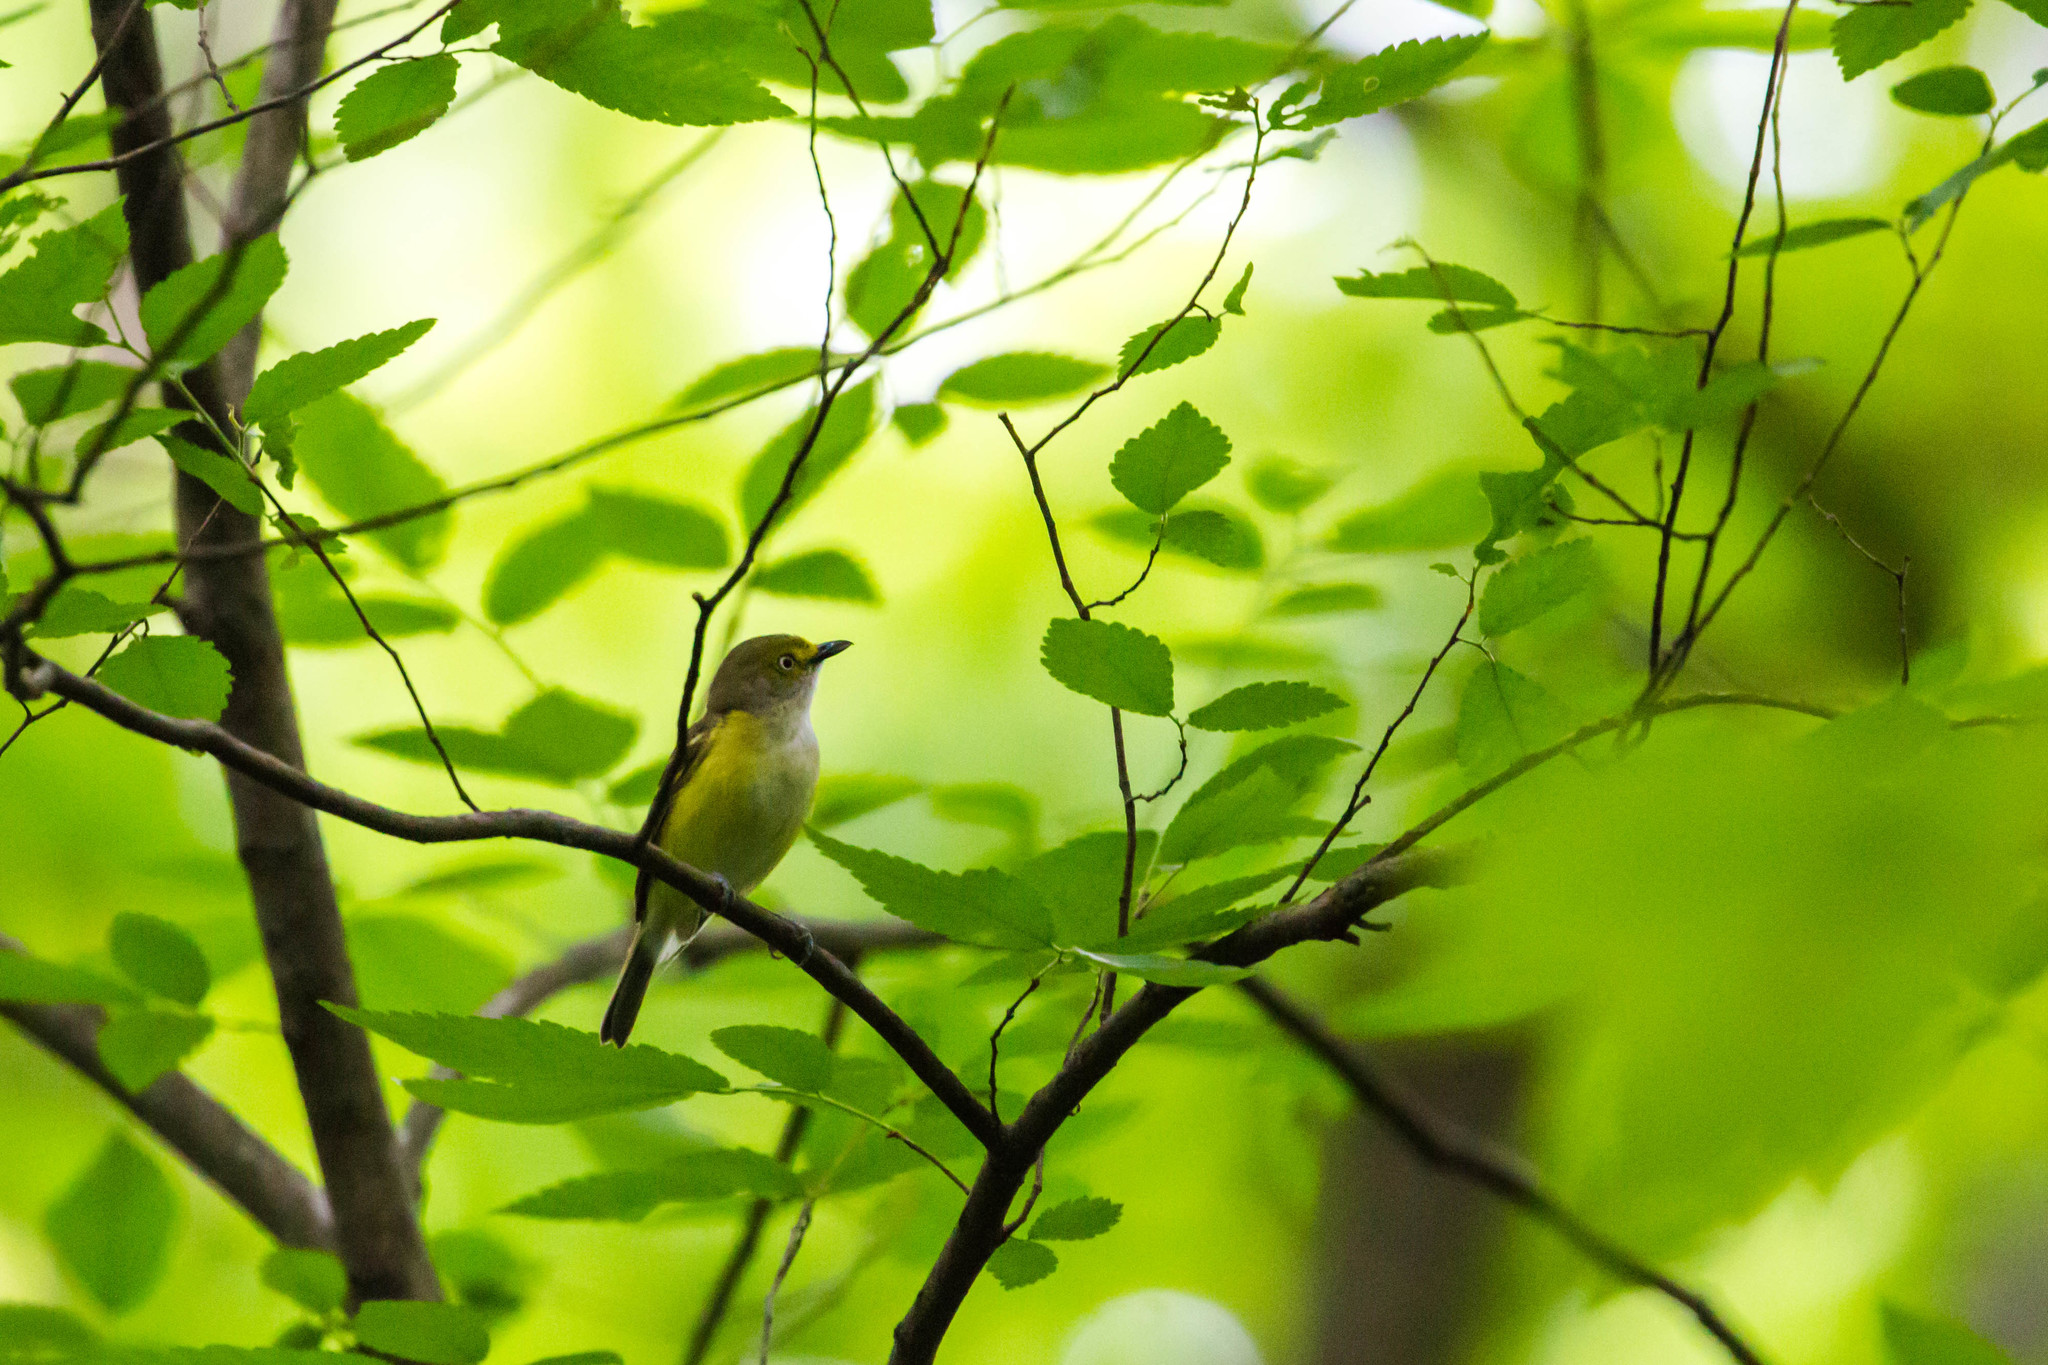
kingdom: Animalia
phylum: Chordata
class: Aves
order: Passeriformes
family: Vireonidae
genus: Vireo
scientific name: Vireo griseus
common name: White-eyed vireo
